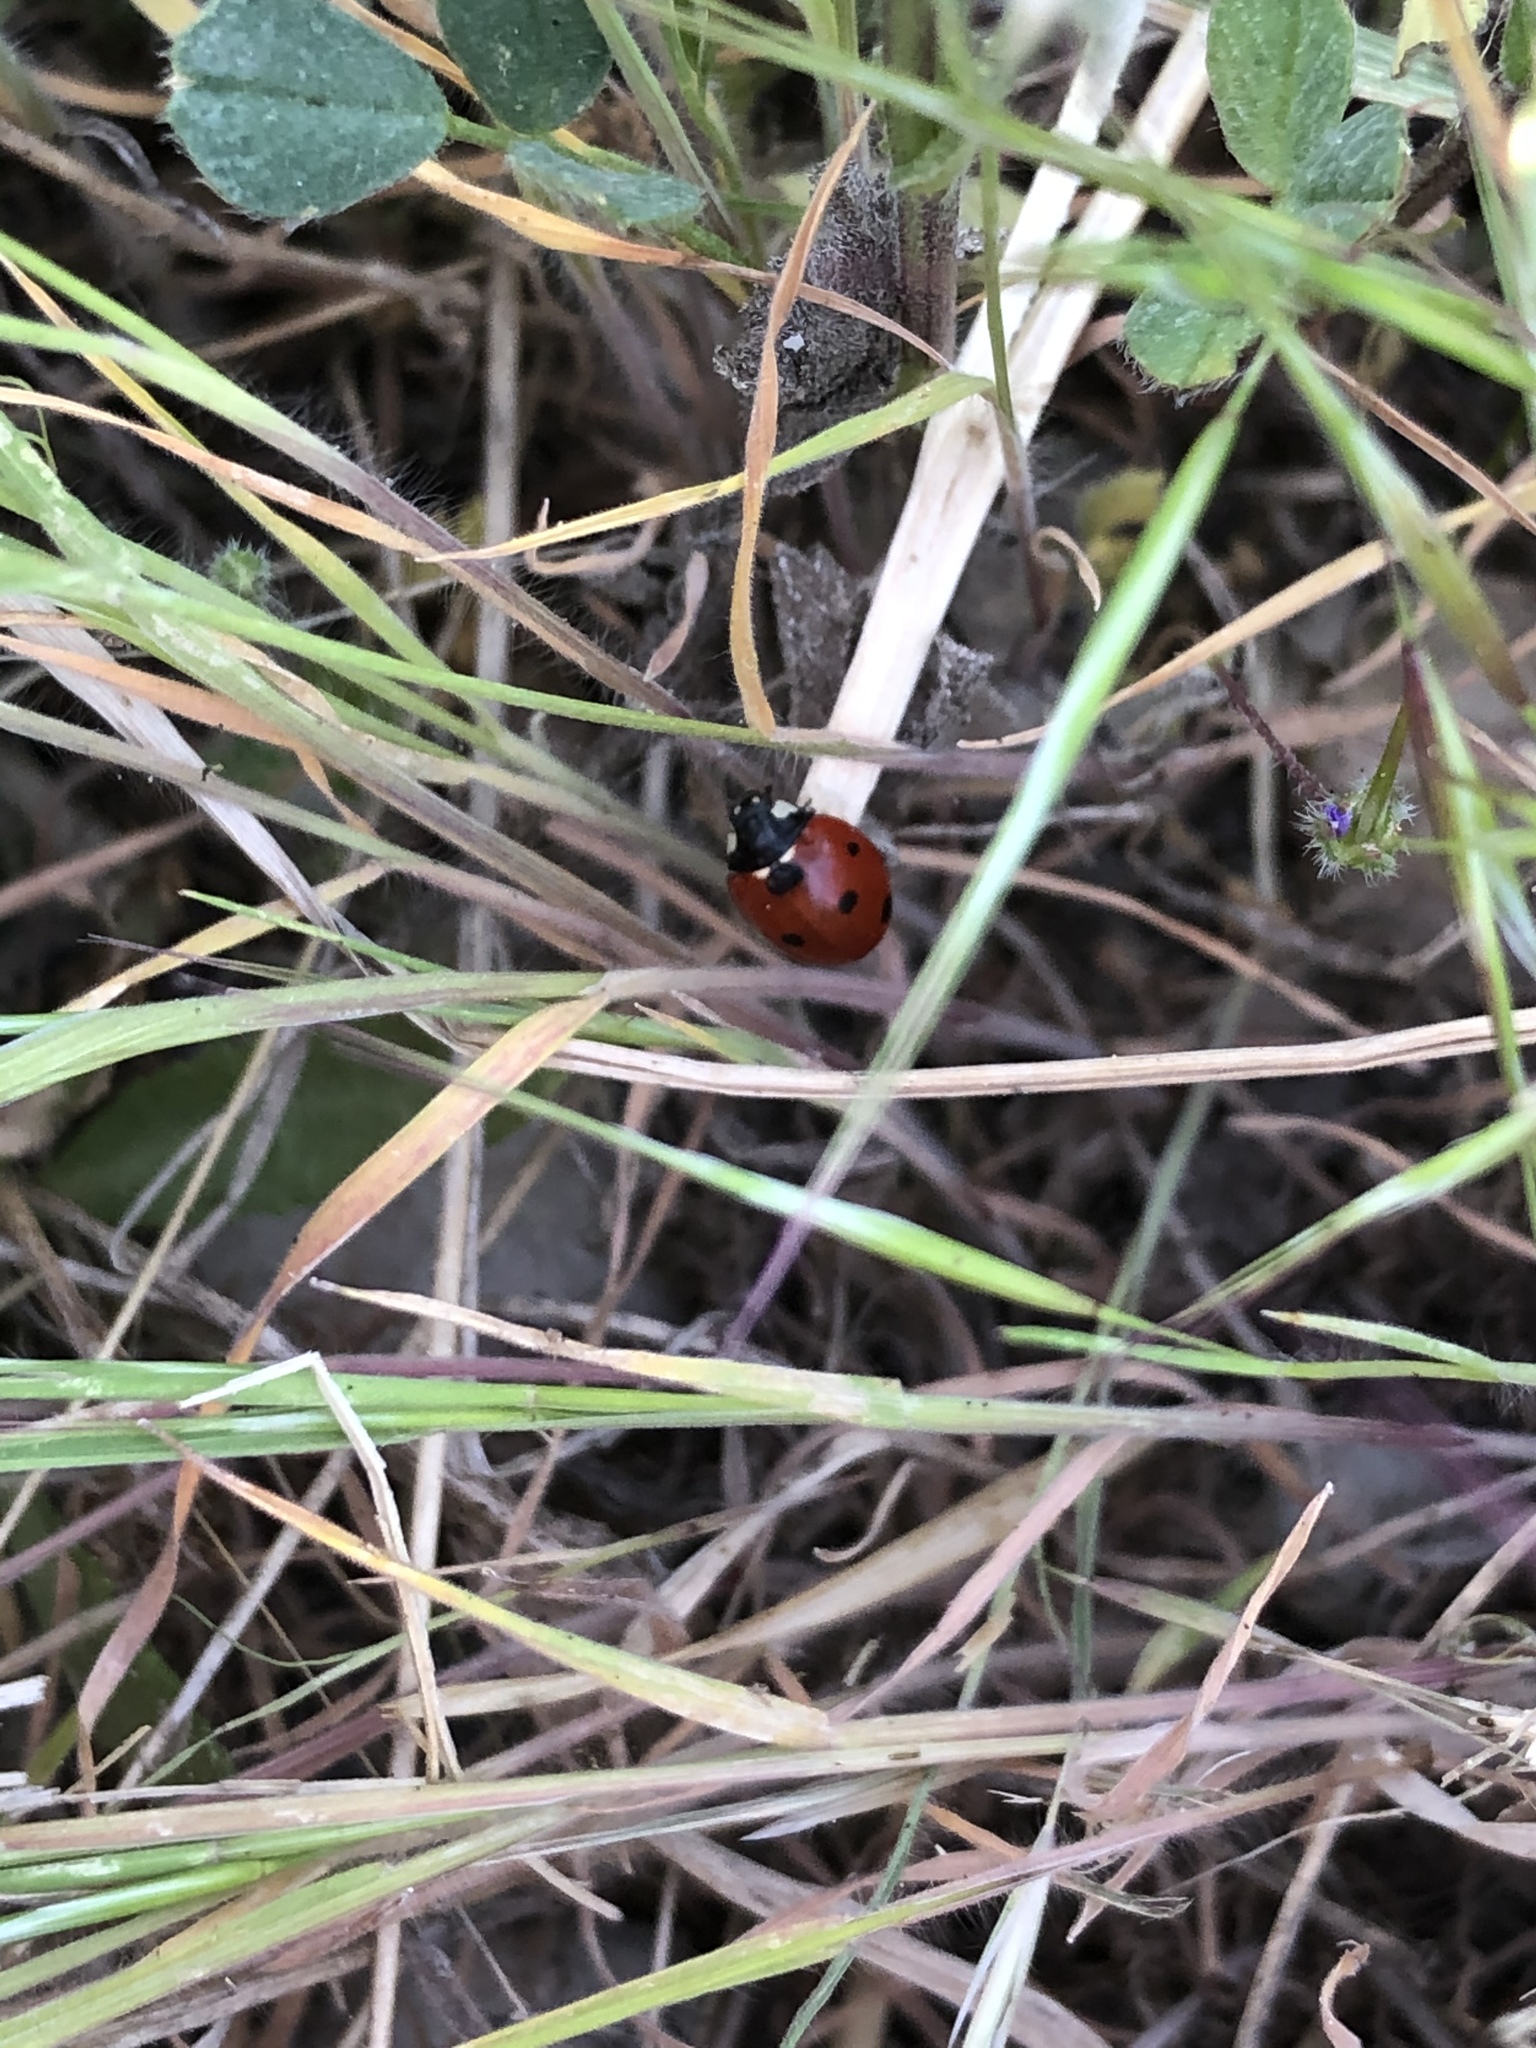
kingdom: Animalia
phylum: Arthropoda
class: Insecta
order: Coleoptera
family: Coccinellidae
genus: Coccinella
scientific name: Coccinella septempunctata
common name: Sevenspotted lady beetle
